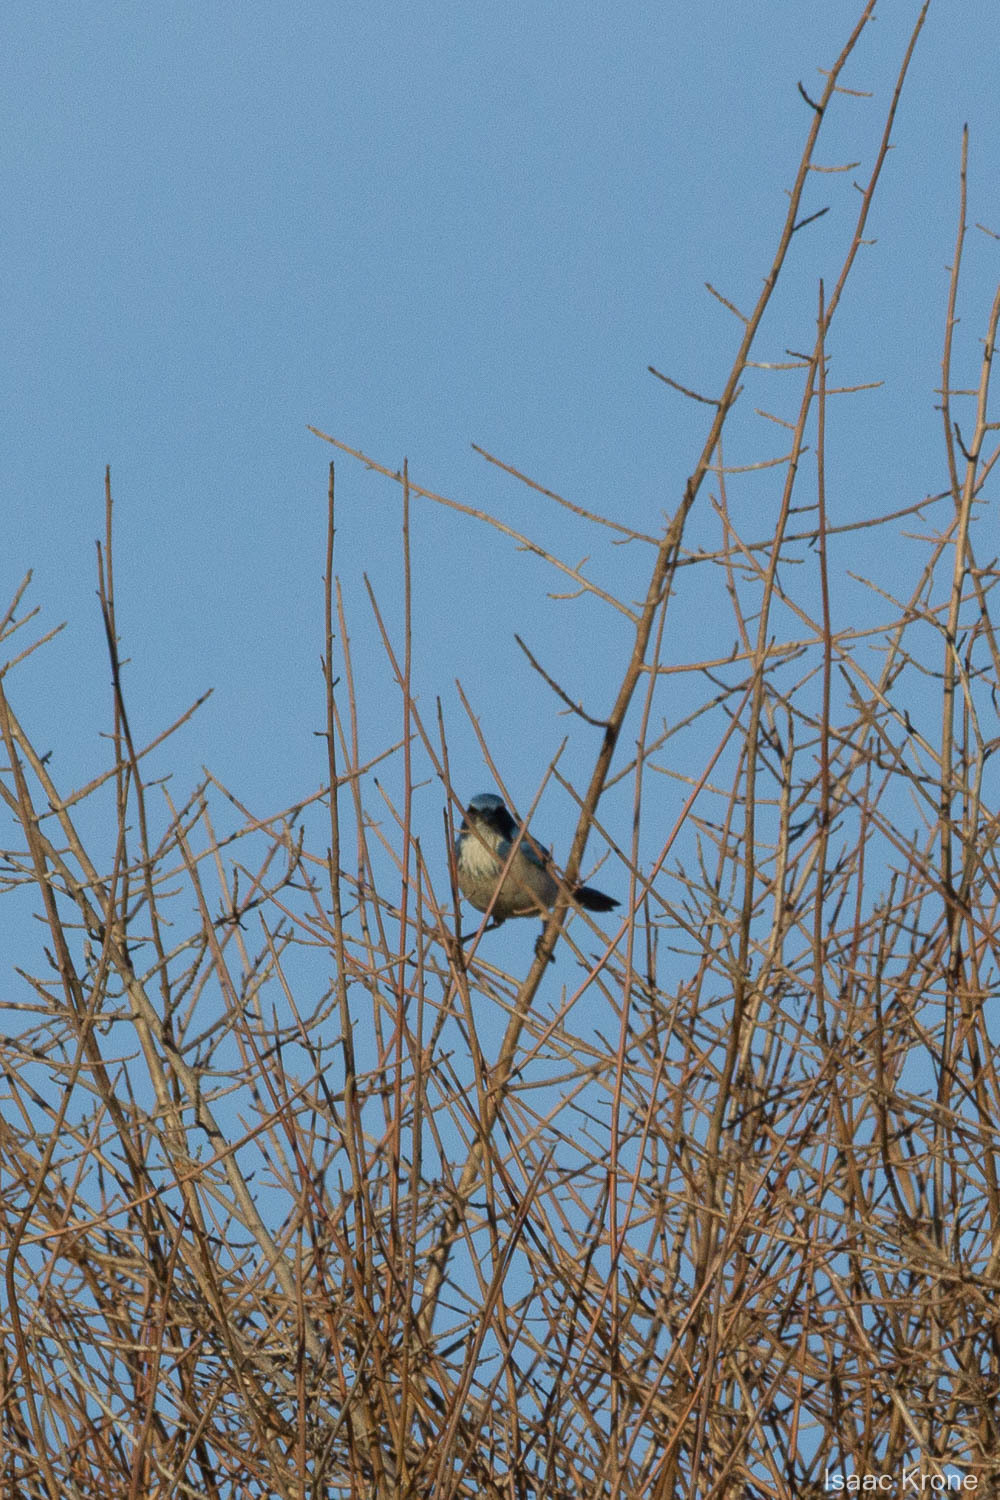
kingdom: Animalia
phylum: Chordata
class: Aves
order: Passeriformes
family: Corvidae
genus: Aphelocoma
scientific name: Aphelocoma californica
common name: California scrub-jay
